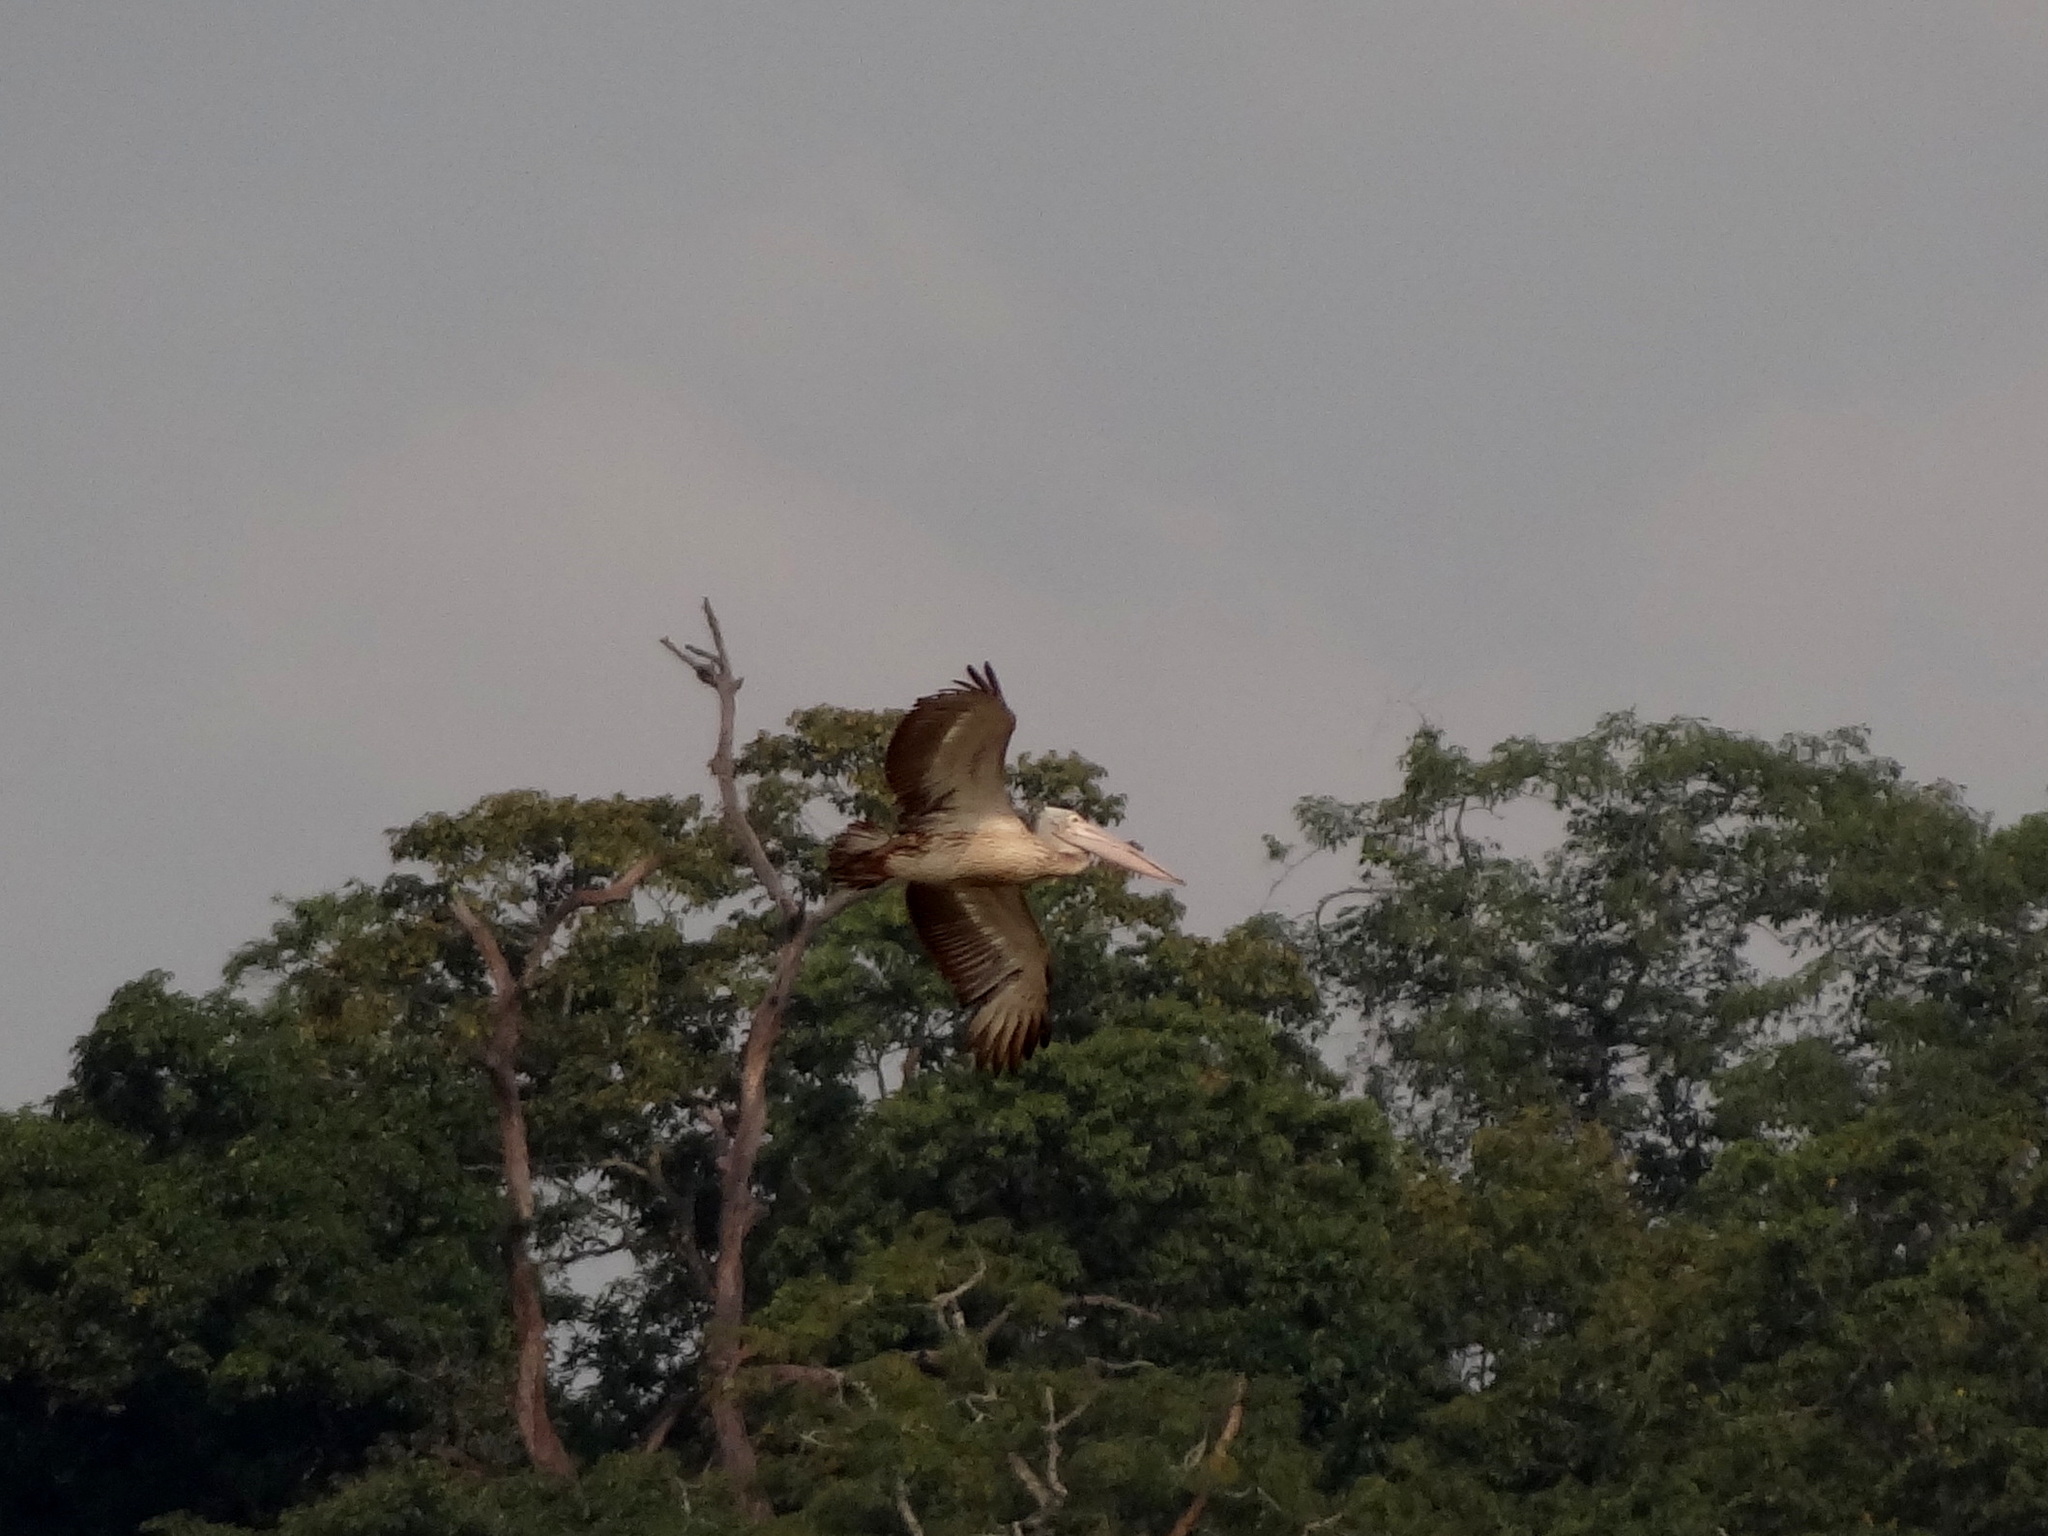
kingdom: Animalia
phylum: Chordata
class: Aves
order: Pelecaniformes
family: Pelecanidae
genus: Pelecanus
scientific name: Pelecanus philippensis
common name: Spot-billed pelican
